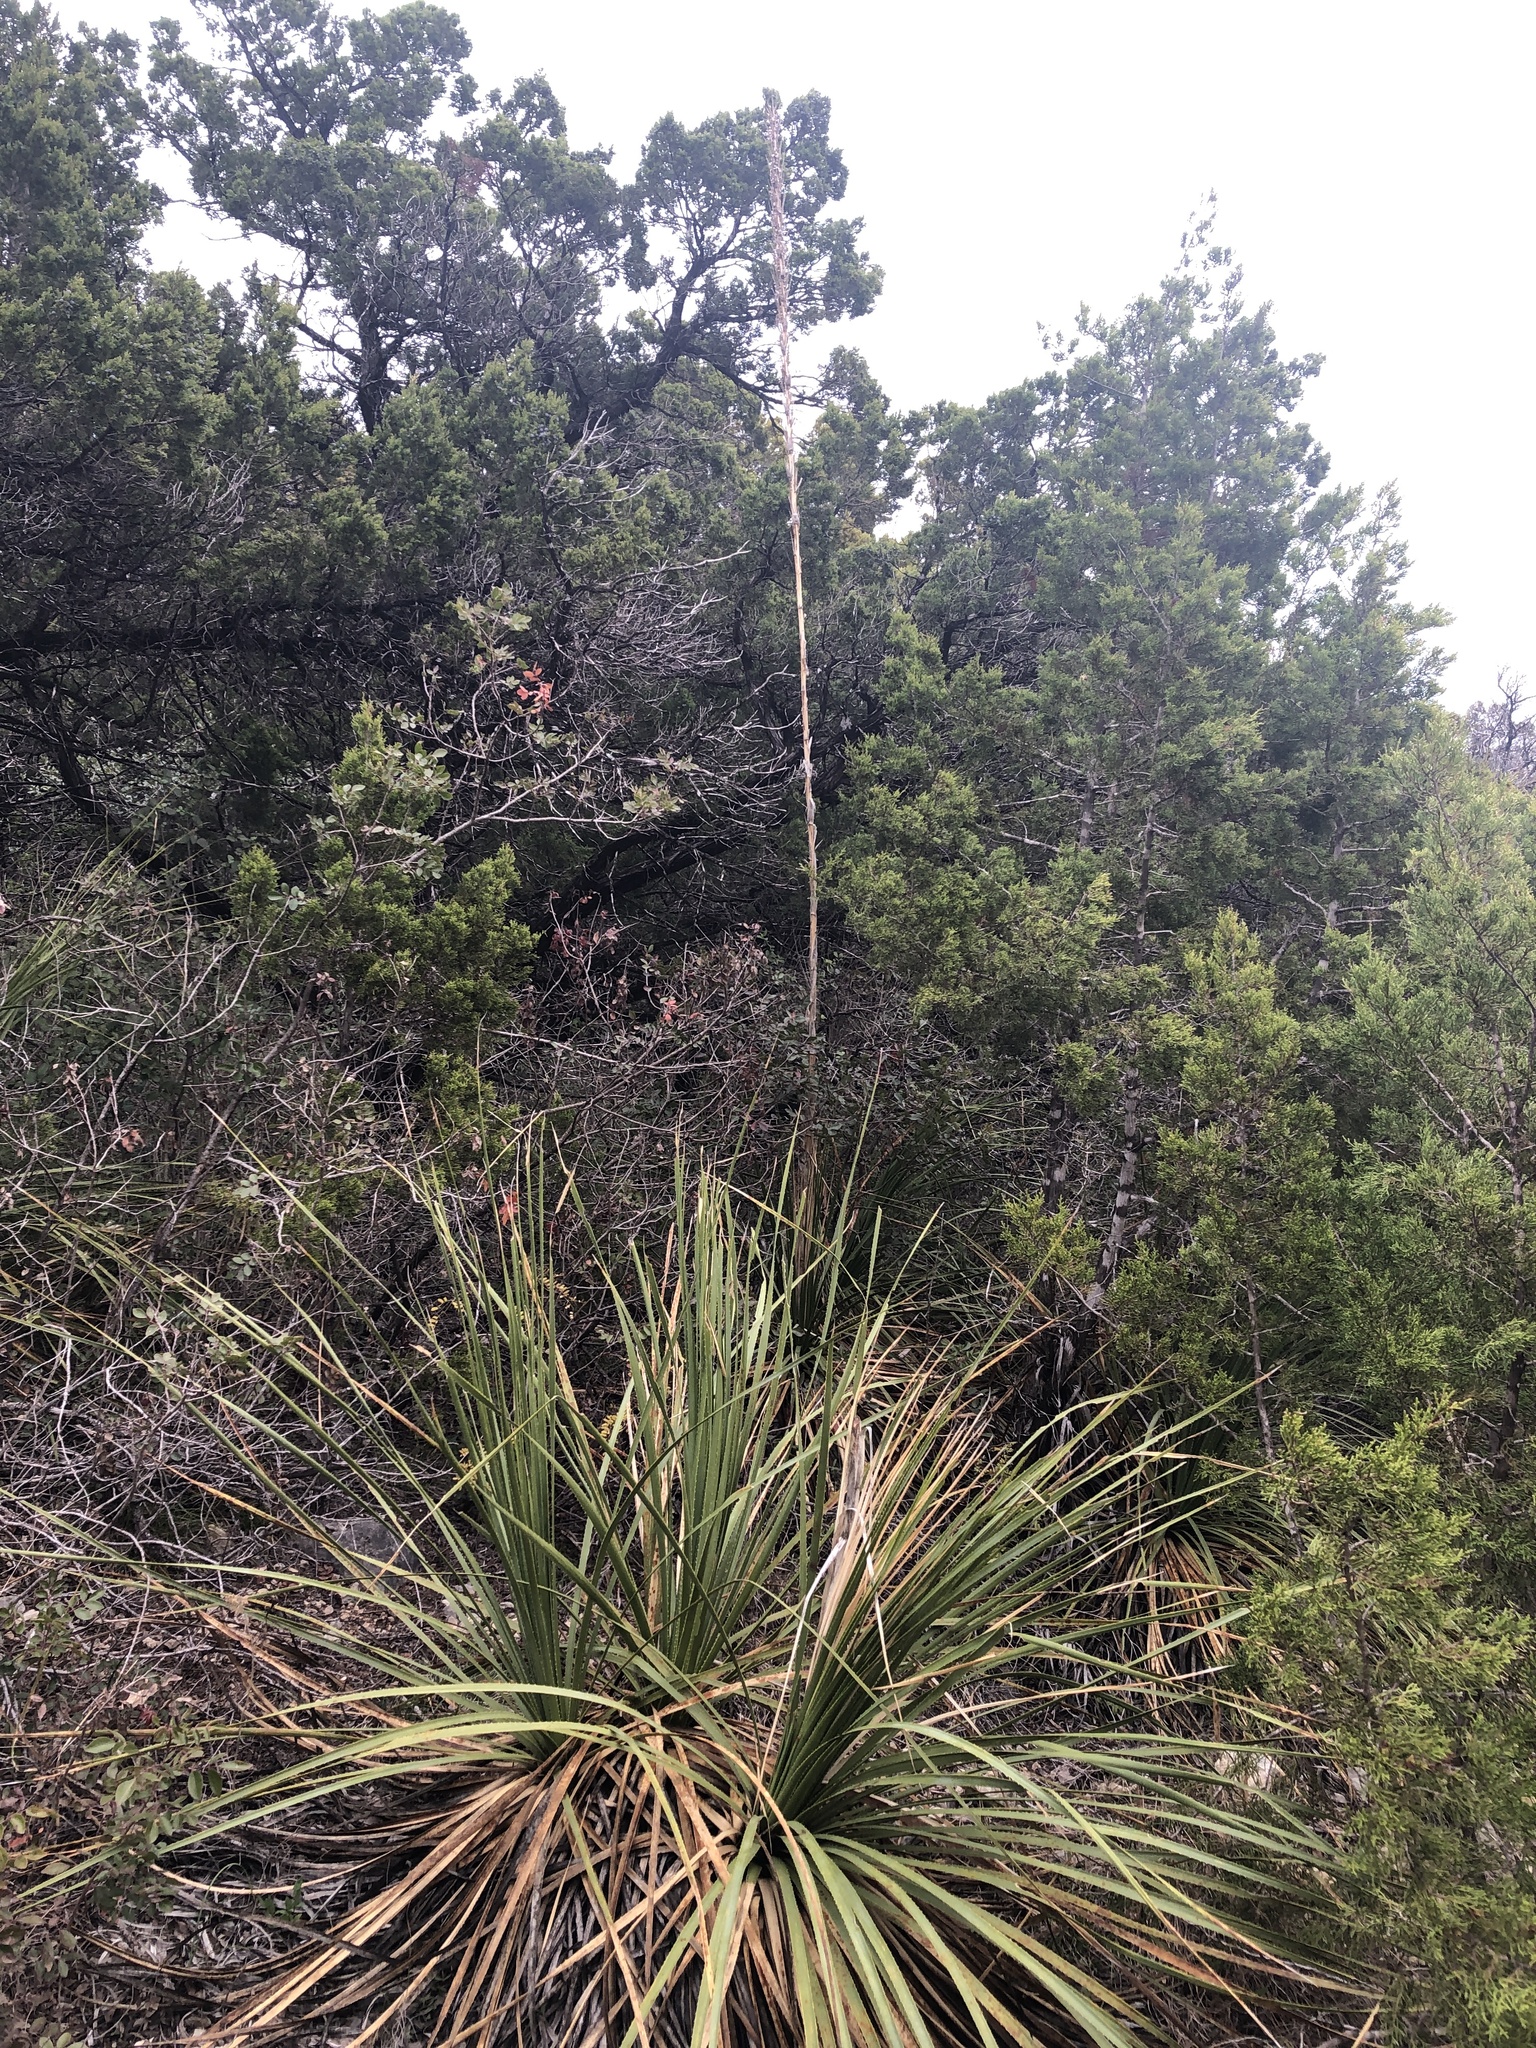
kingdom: Plantae
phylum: Tracheophyta
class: Liliopsida
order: Asparagales
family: Asparagaceae
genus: Dasylirion
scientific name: Dasylirion texanum
